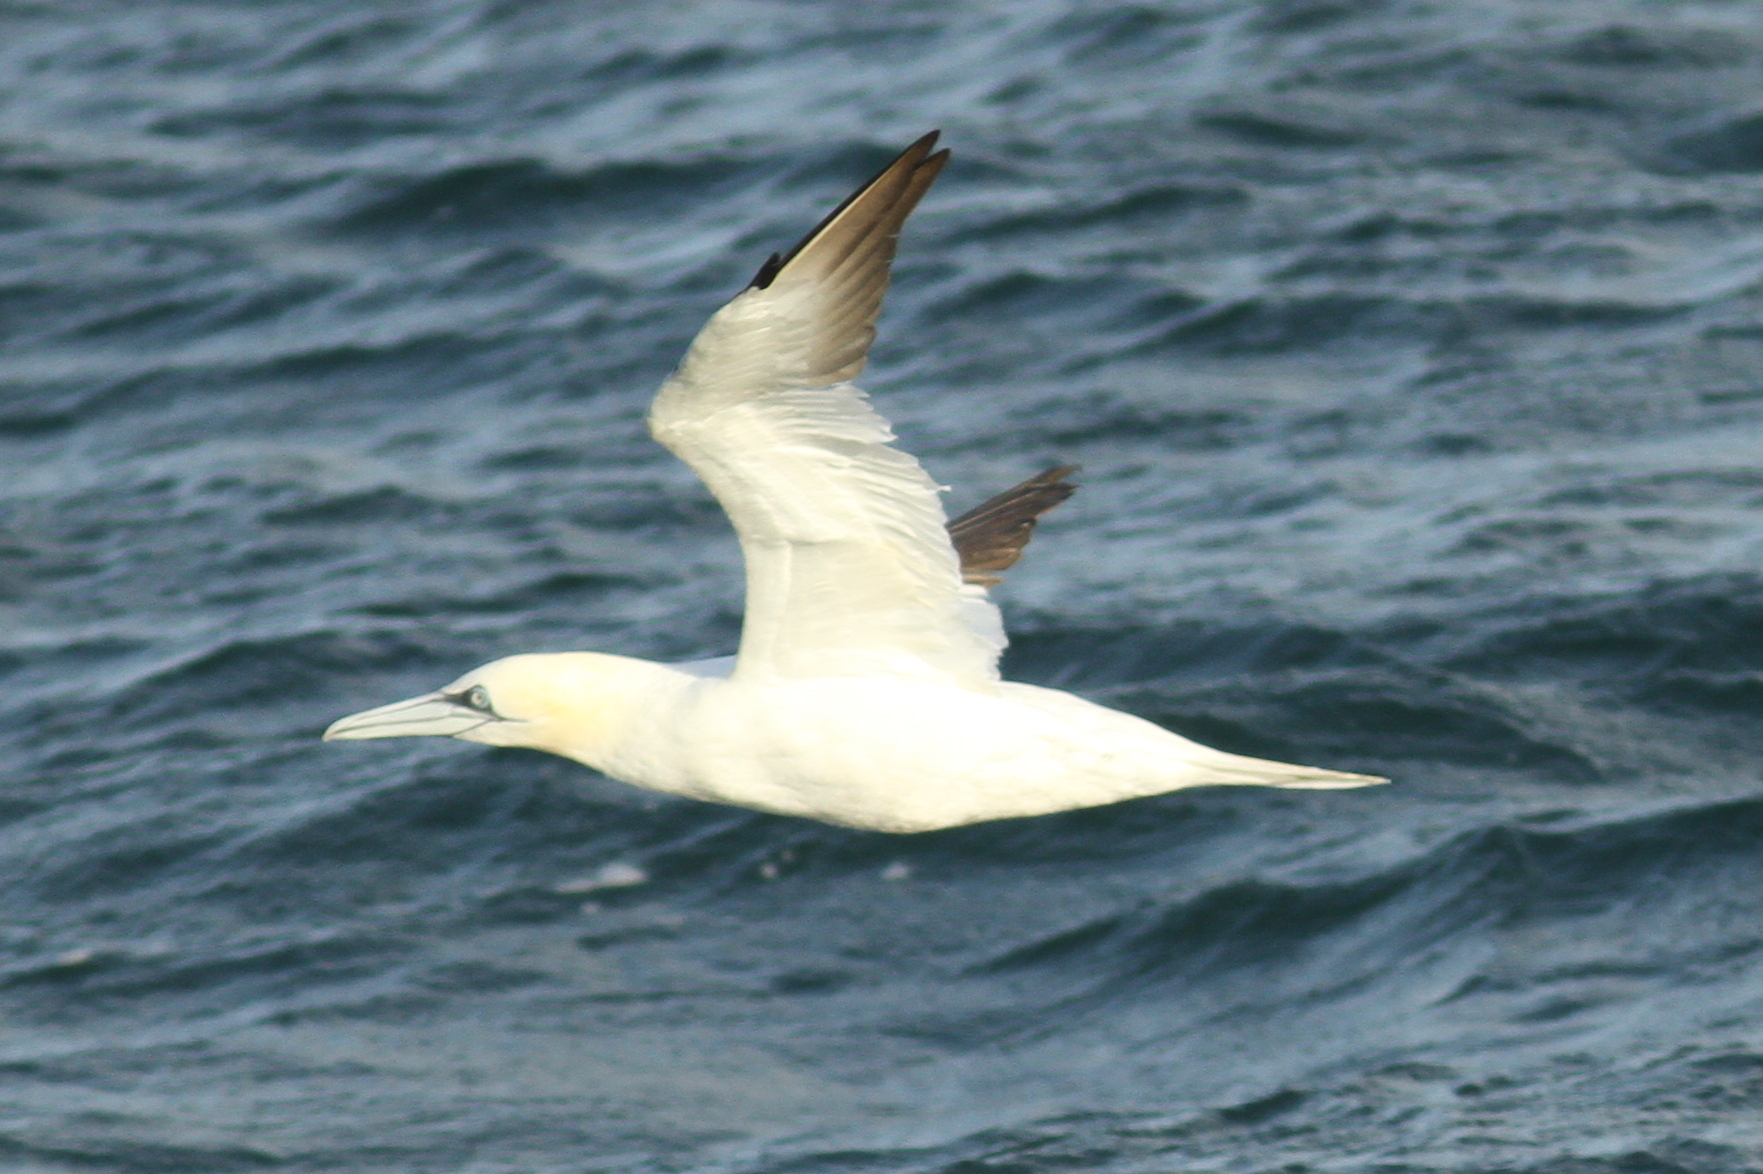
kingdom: Animalia
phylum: Chordata
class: Aves
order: Suliformes
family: Sulidae
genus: Morus
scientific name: Morus bassanus
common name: Northern gannet
